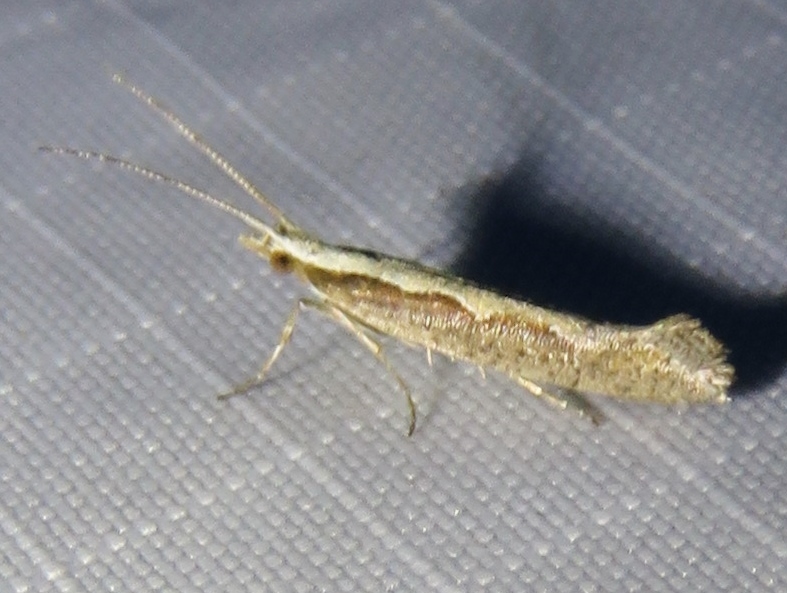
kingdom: Animalia
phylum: Arthropoda
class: Insecta
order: Lepidoptera
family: Plutellidae
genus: Plutella
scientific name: Plutella xylostella
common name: Diamond-back moth
